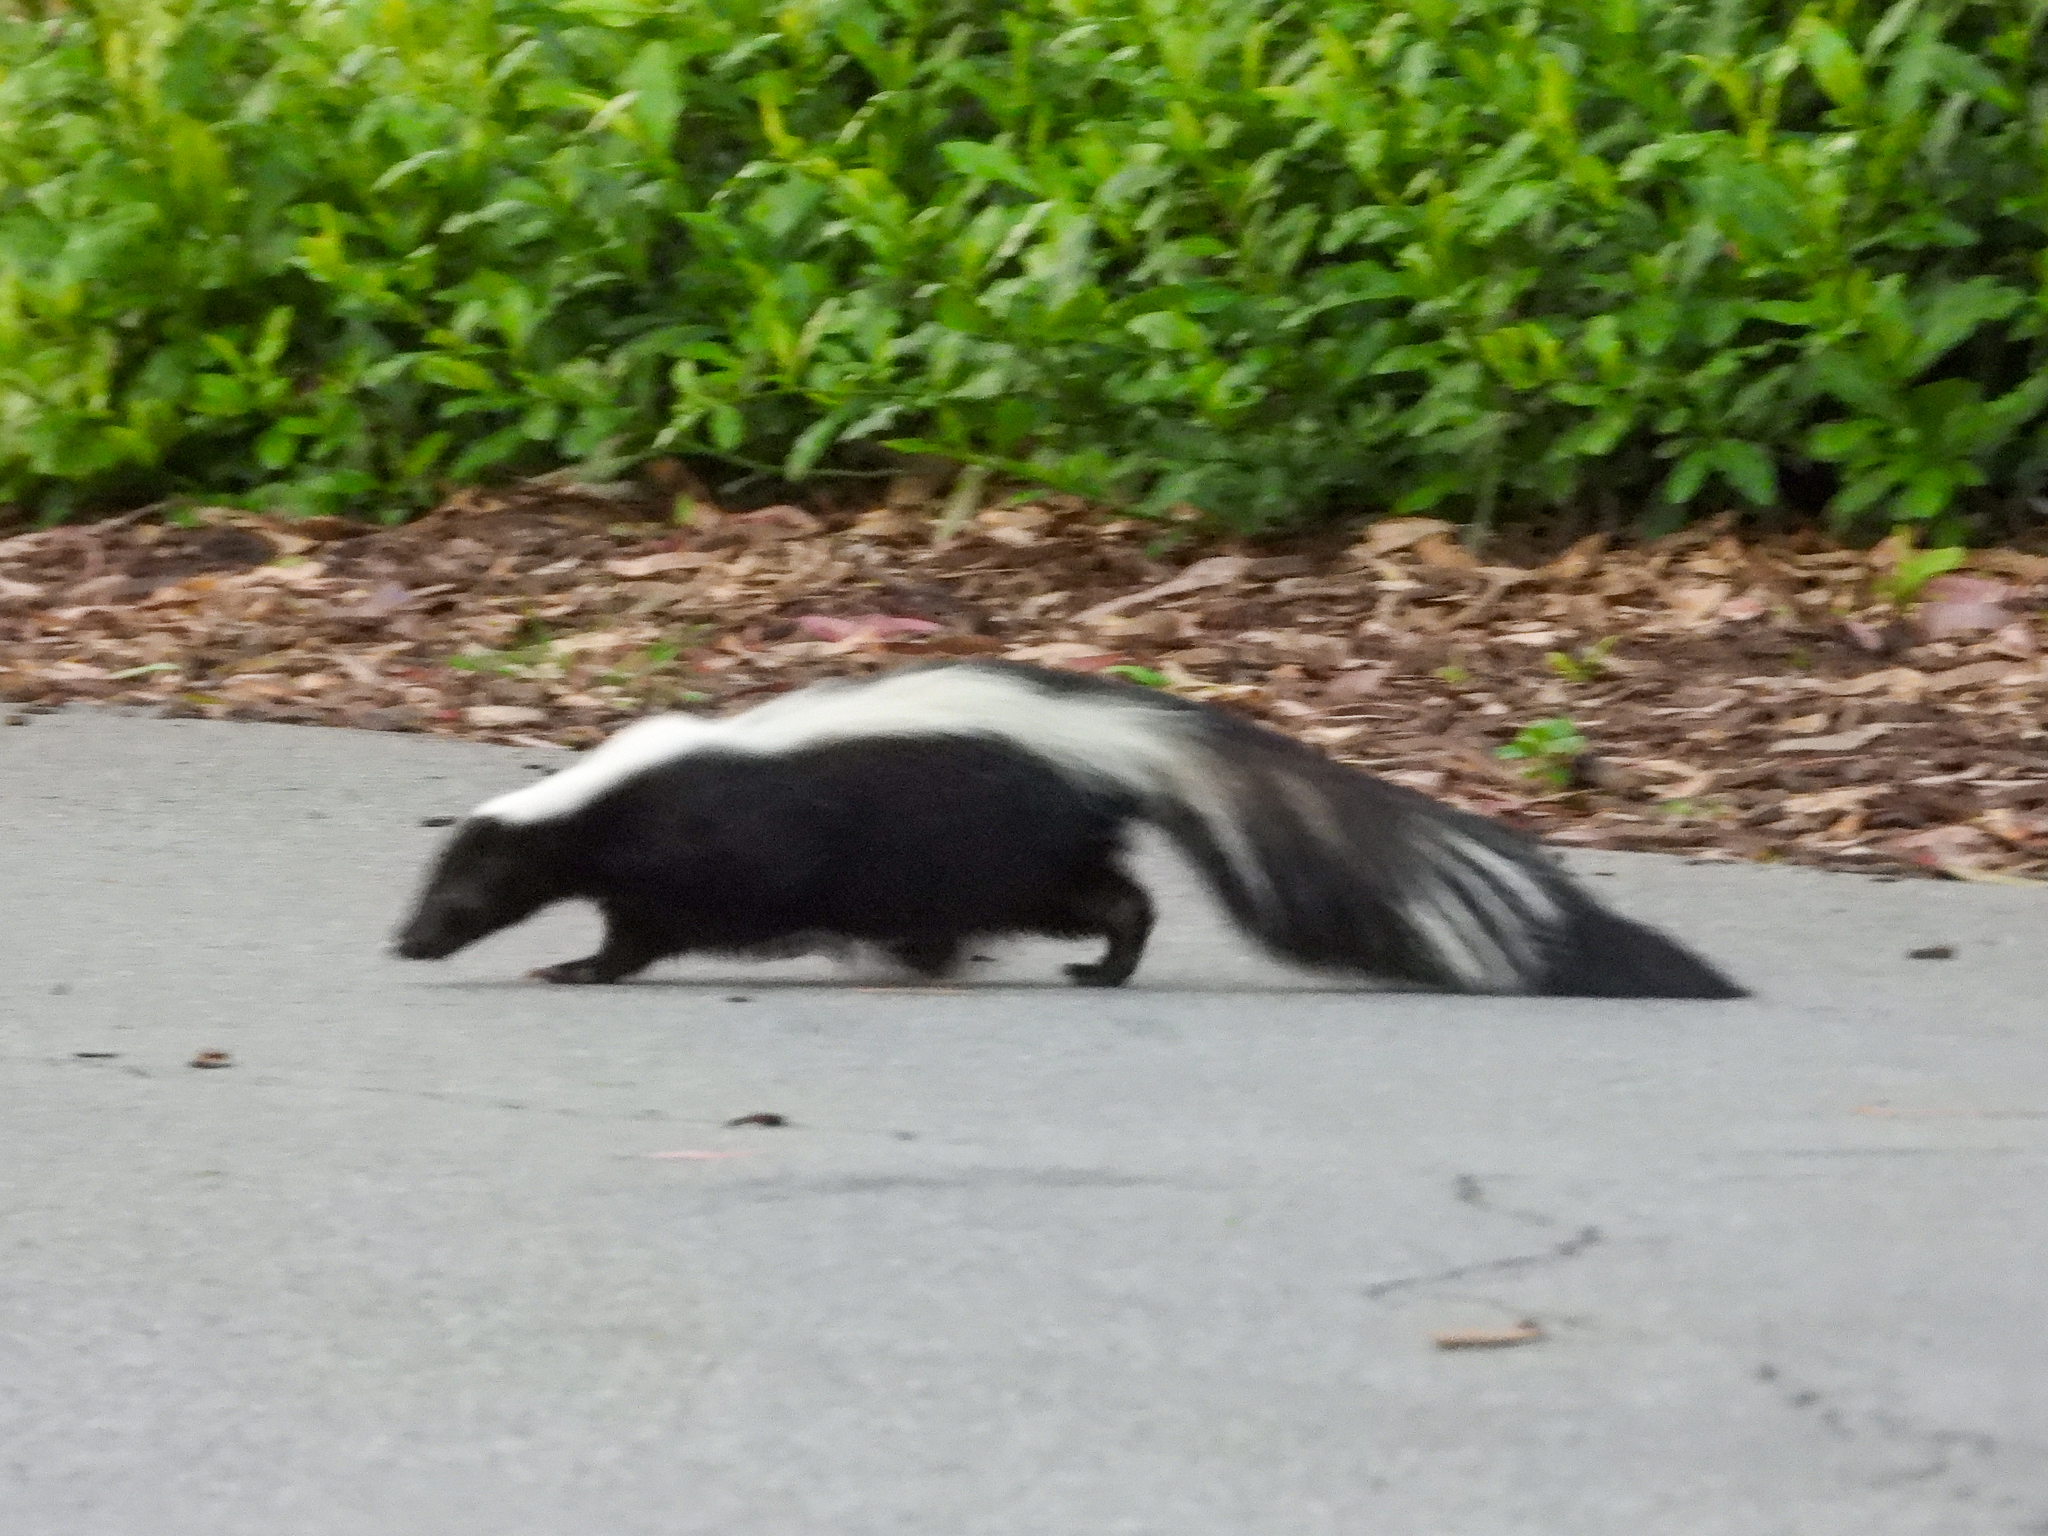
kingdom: Animalia
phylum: Chordata
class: Mammalia
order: Carnivora
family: Mephitidae
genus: Mephitis
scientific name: Mephitis mephitis
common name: Striped skunk
